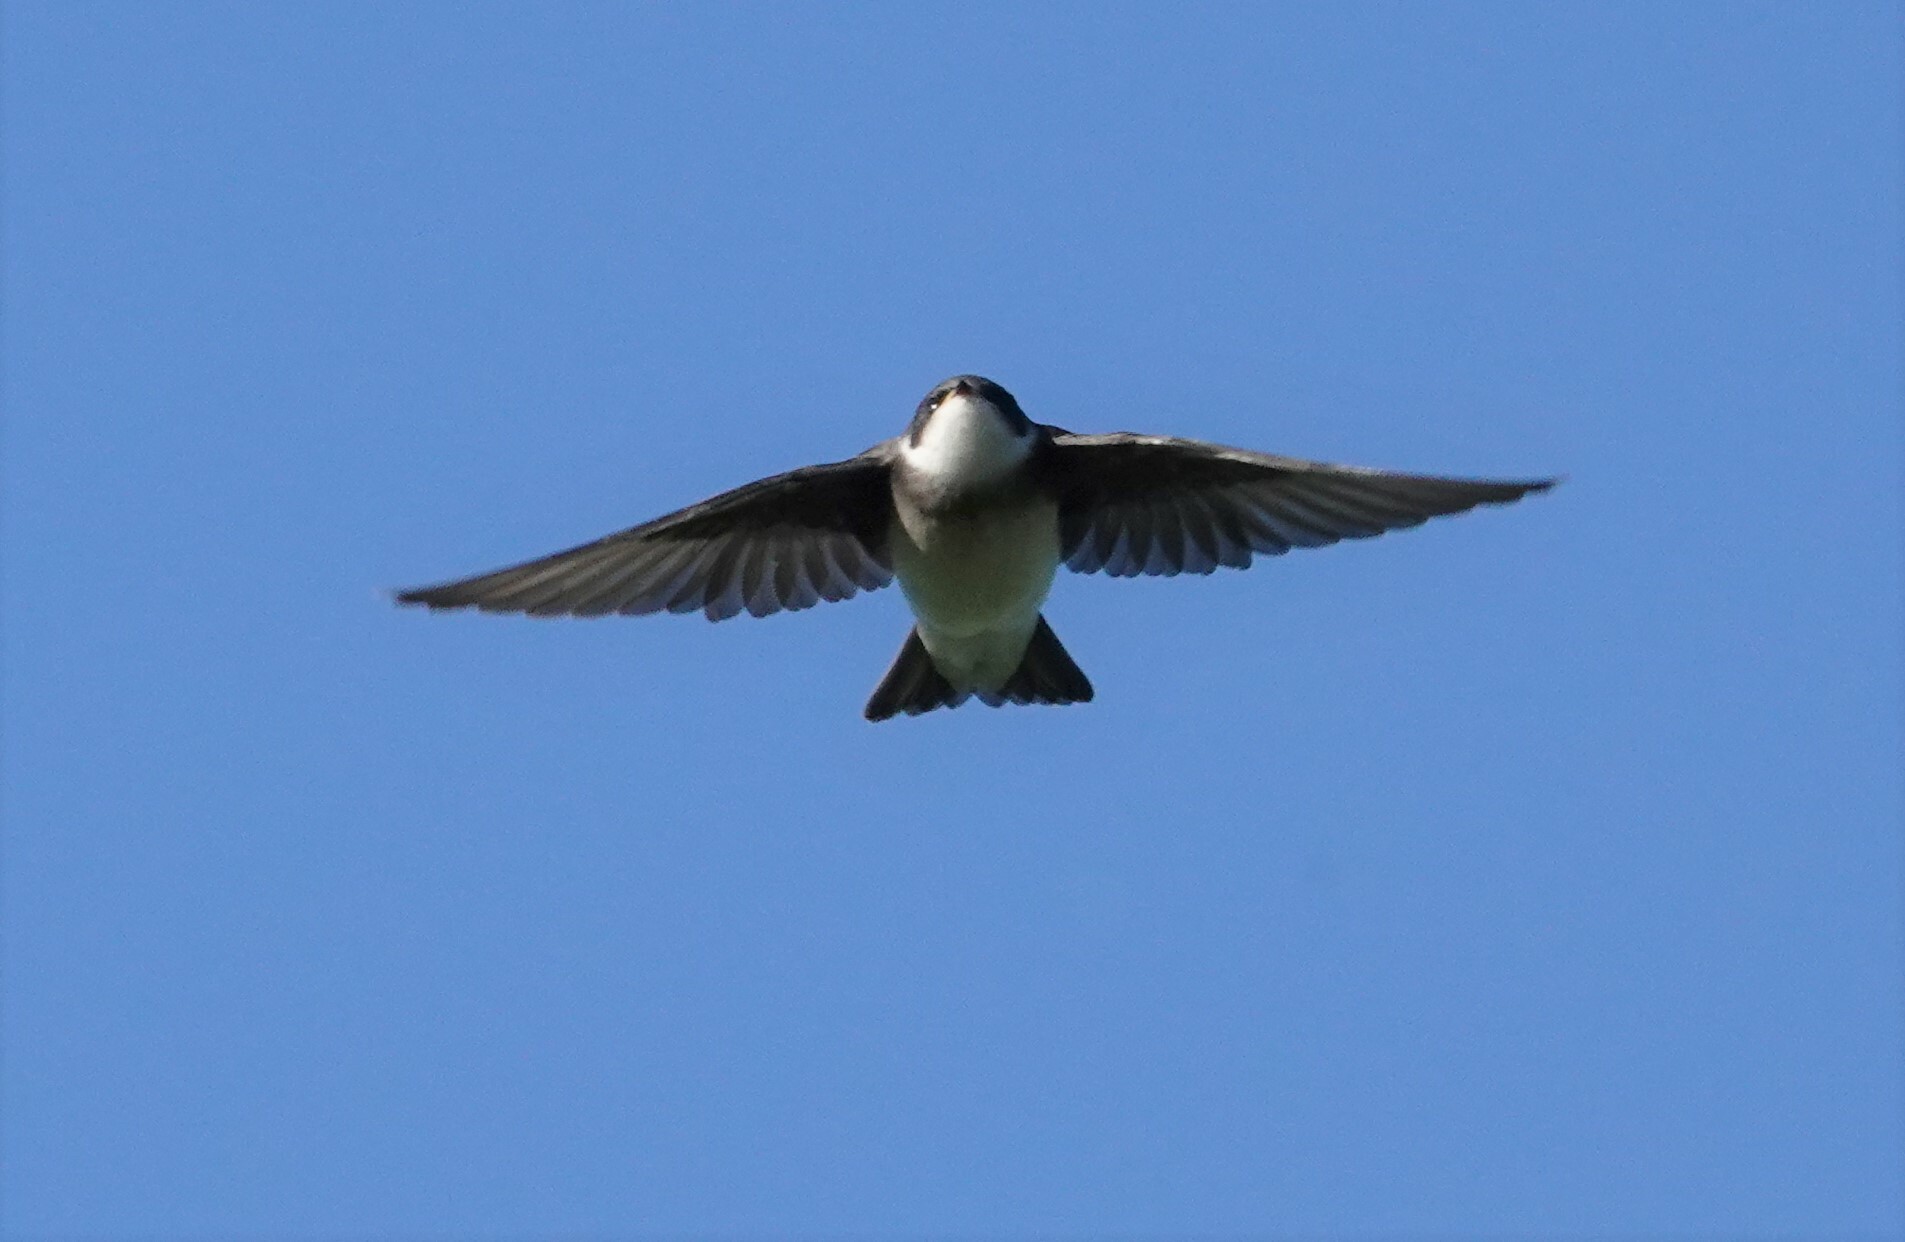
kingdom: Animalia
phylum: Chordata
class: Aves
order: Passeriformes
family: Hirundinidae
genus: Tachycineta
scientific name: Tachycineta bicolor
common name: Tree swallow
